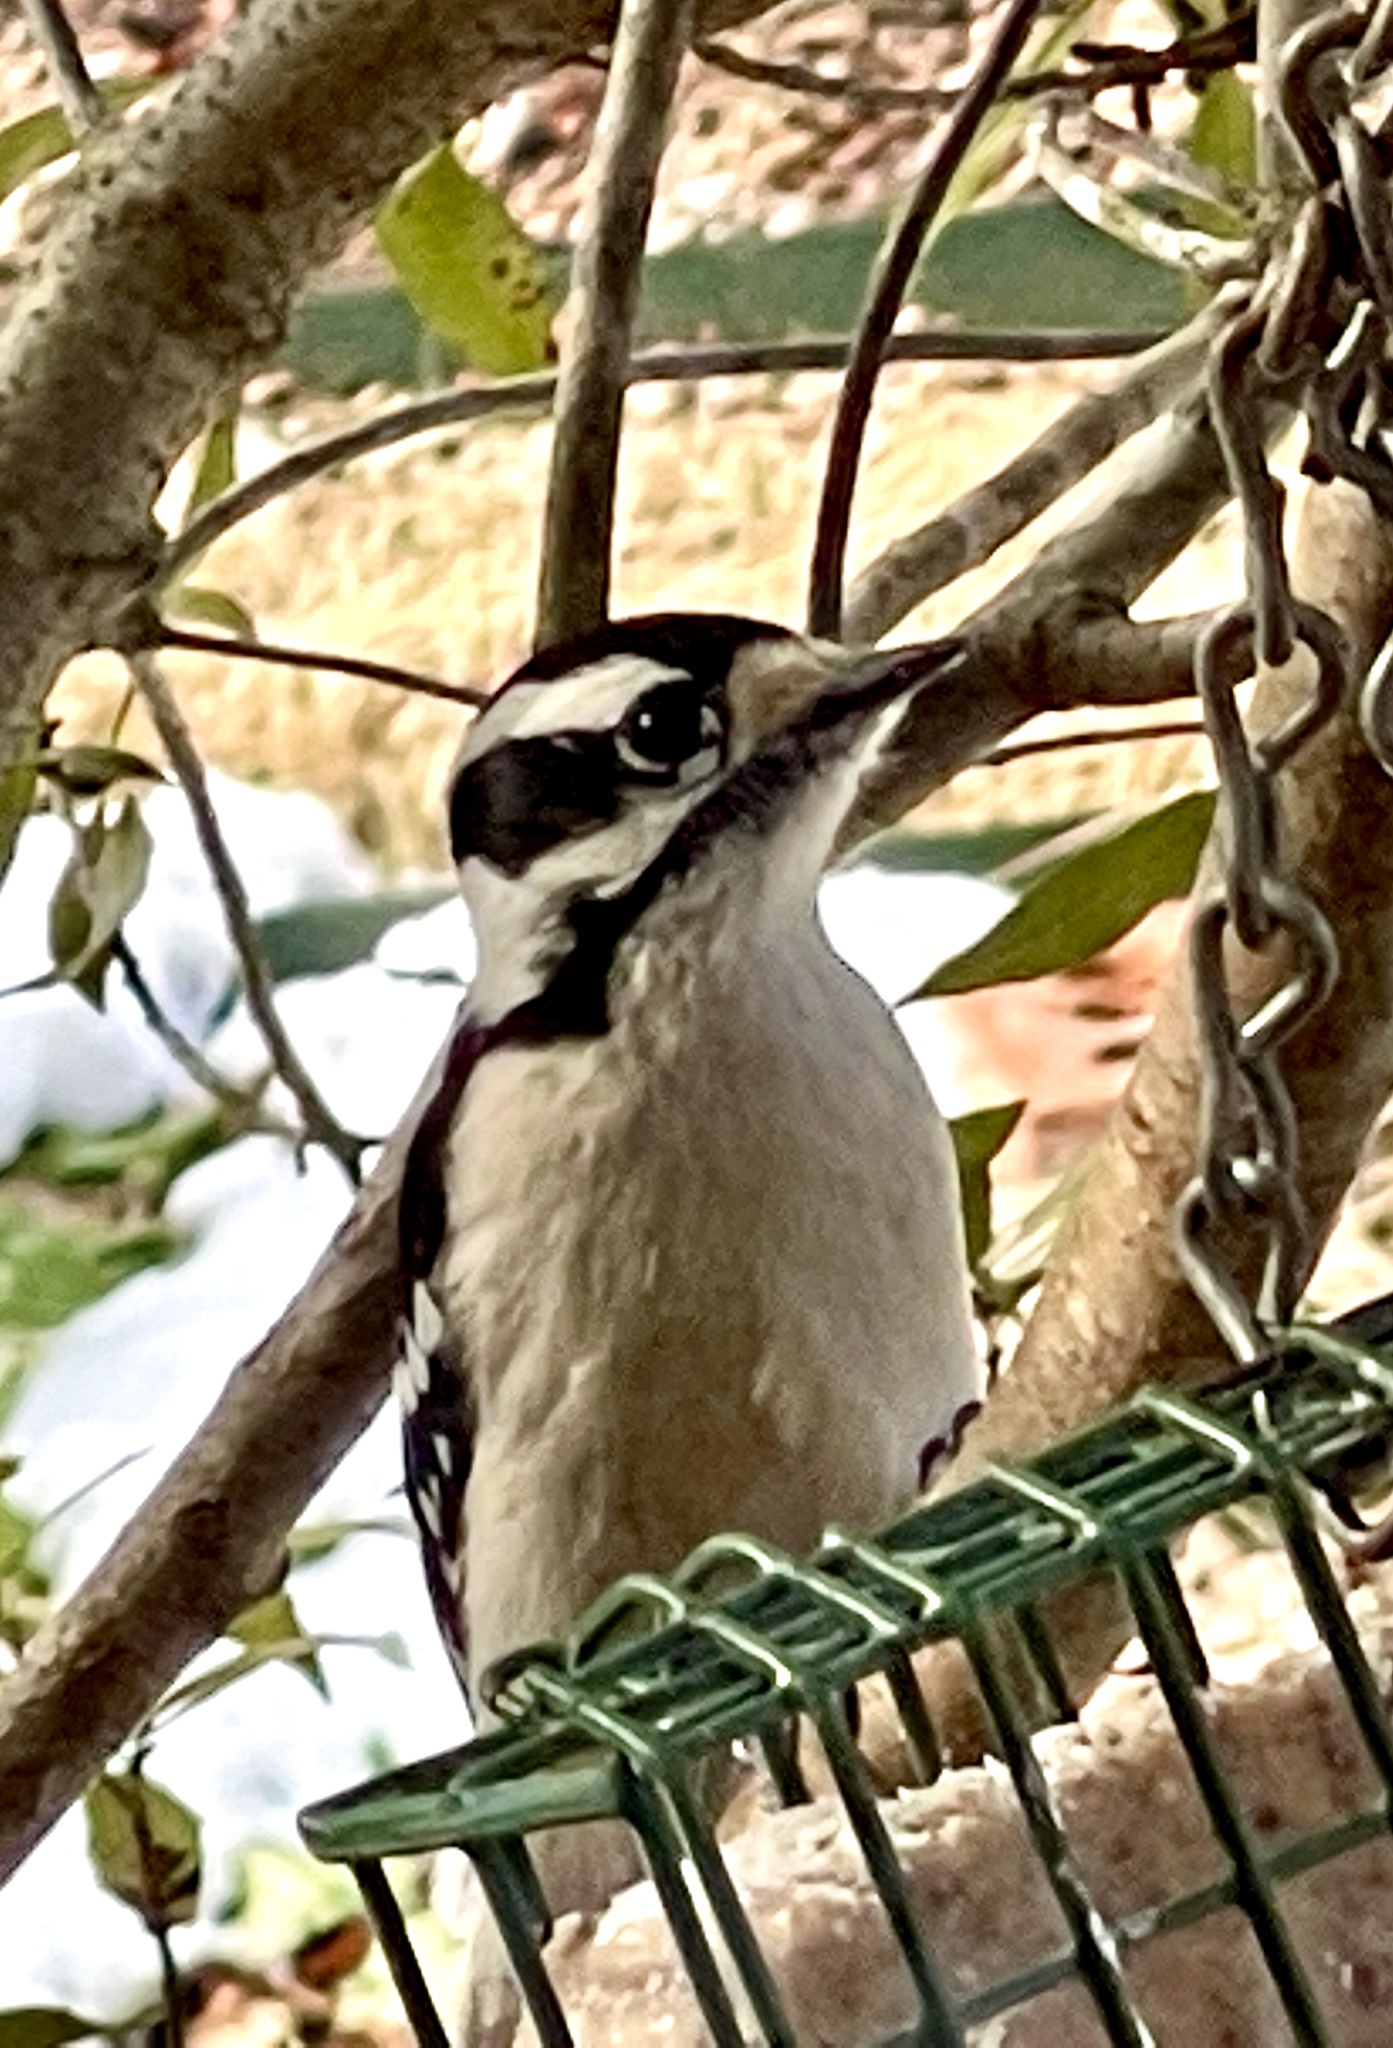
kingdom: Animalia
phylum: Chordata
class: Aves
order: Piciformes
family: Picidae
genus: Dryobates
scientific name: Dryobates pubescens
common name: Downy woodpecker
